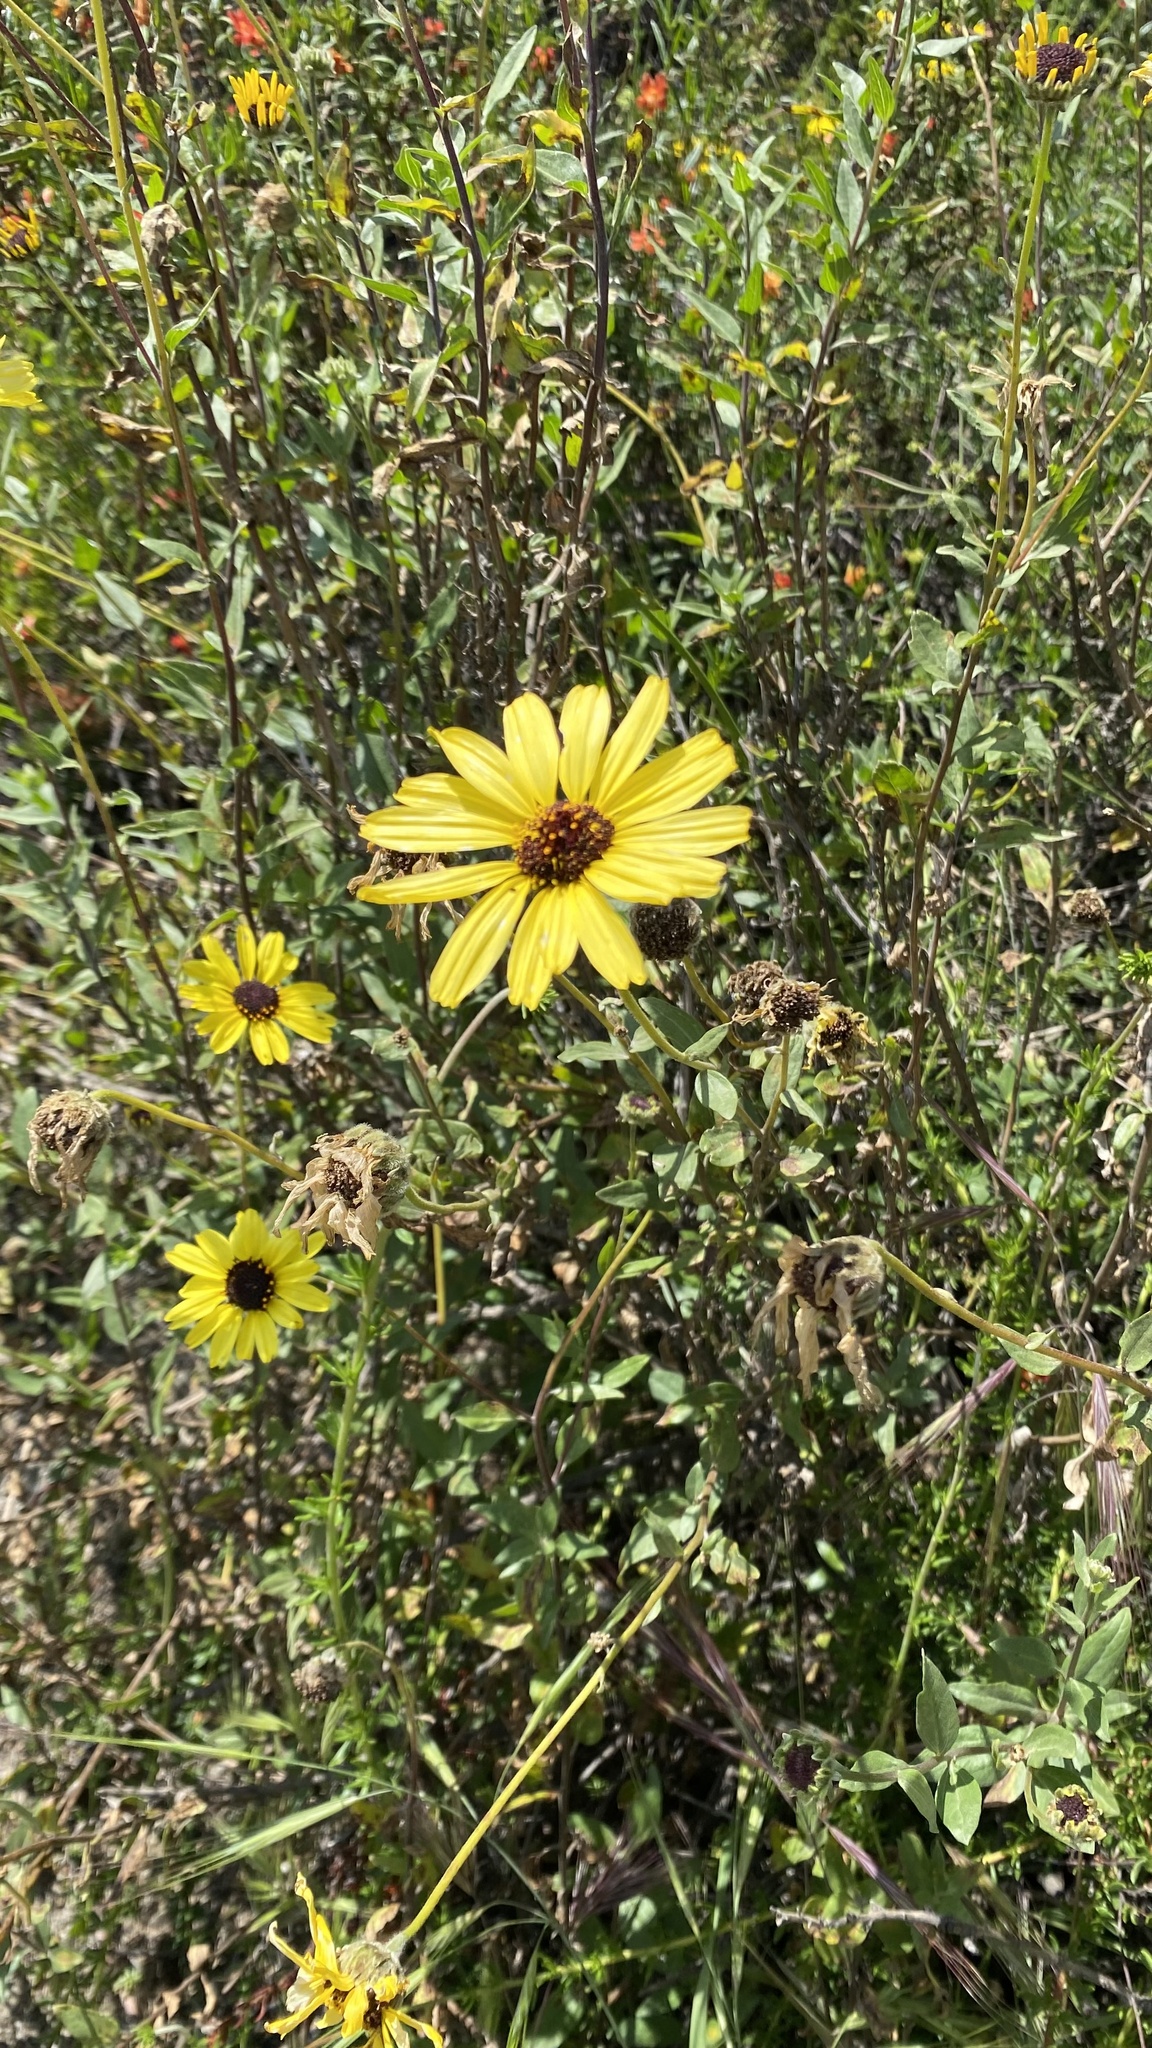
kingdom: Plantae
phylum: Tracheophyta
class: Magnoliopsida
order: Asterales
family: Asteraceae
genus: Encelia
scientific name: Encelia californica
